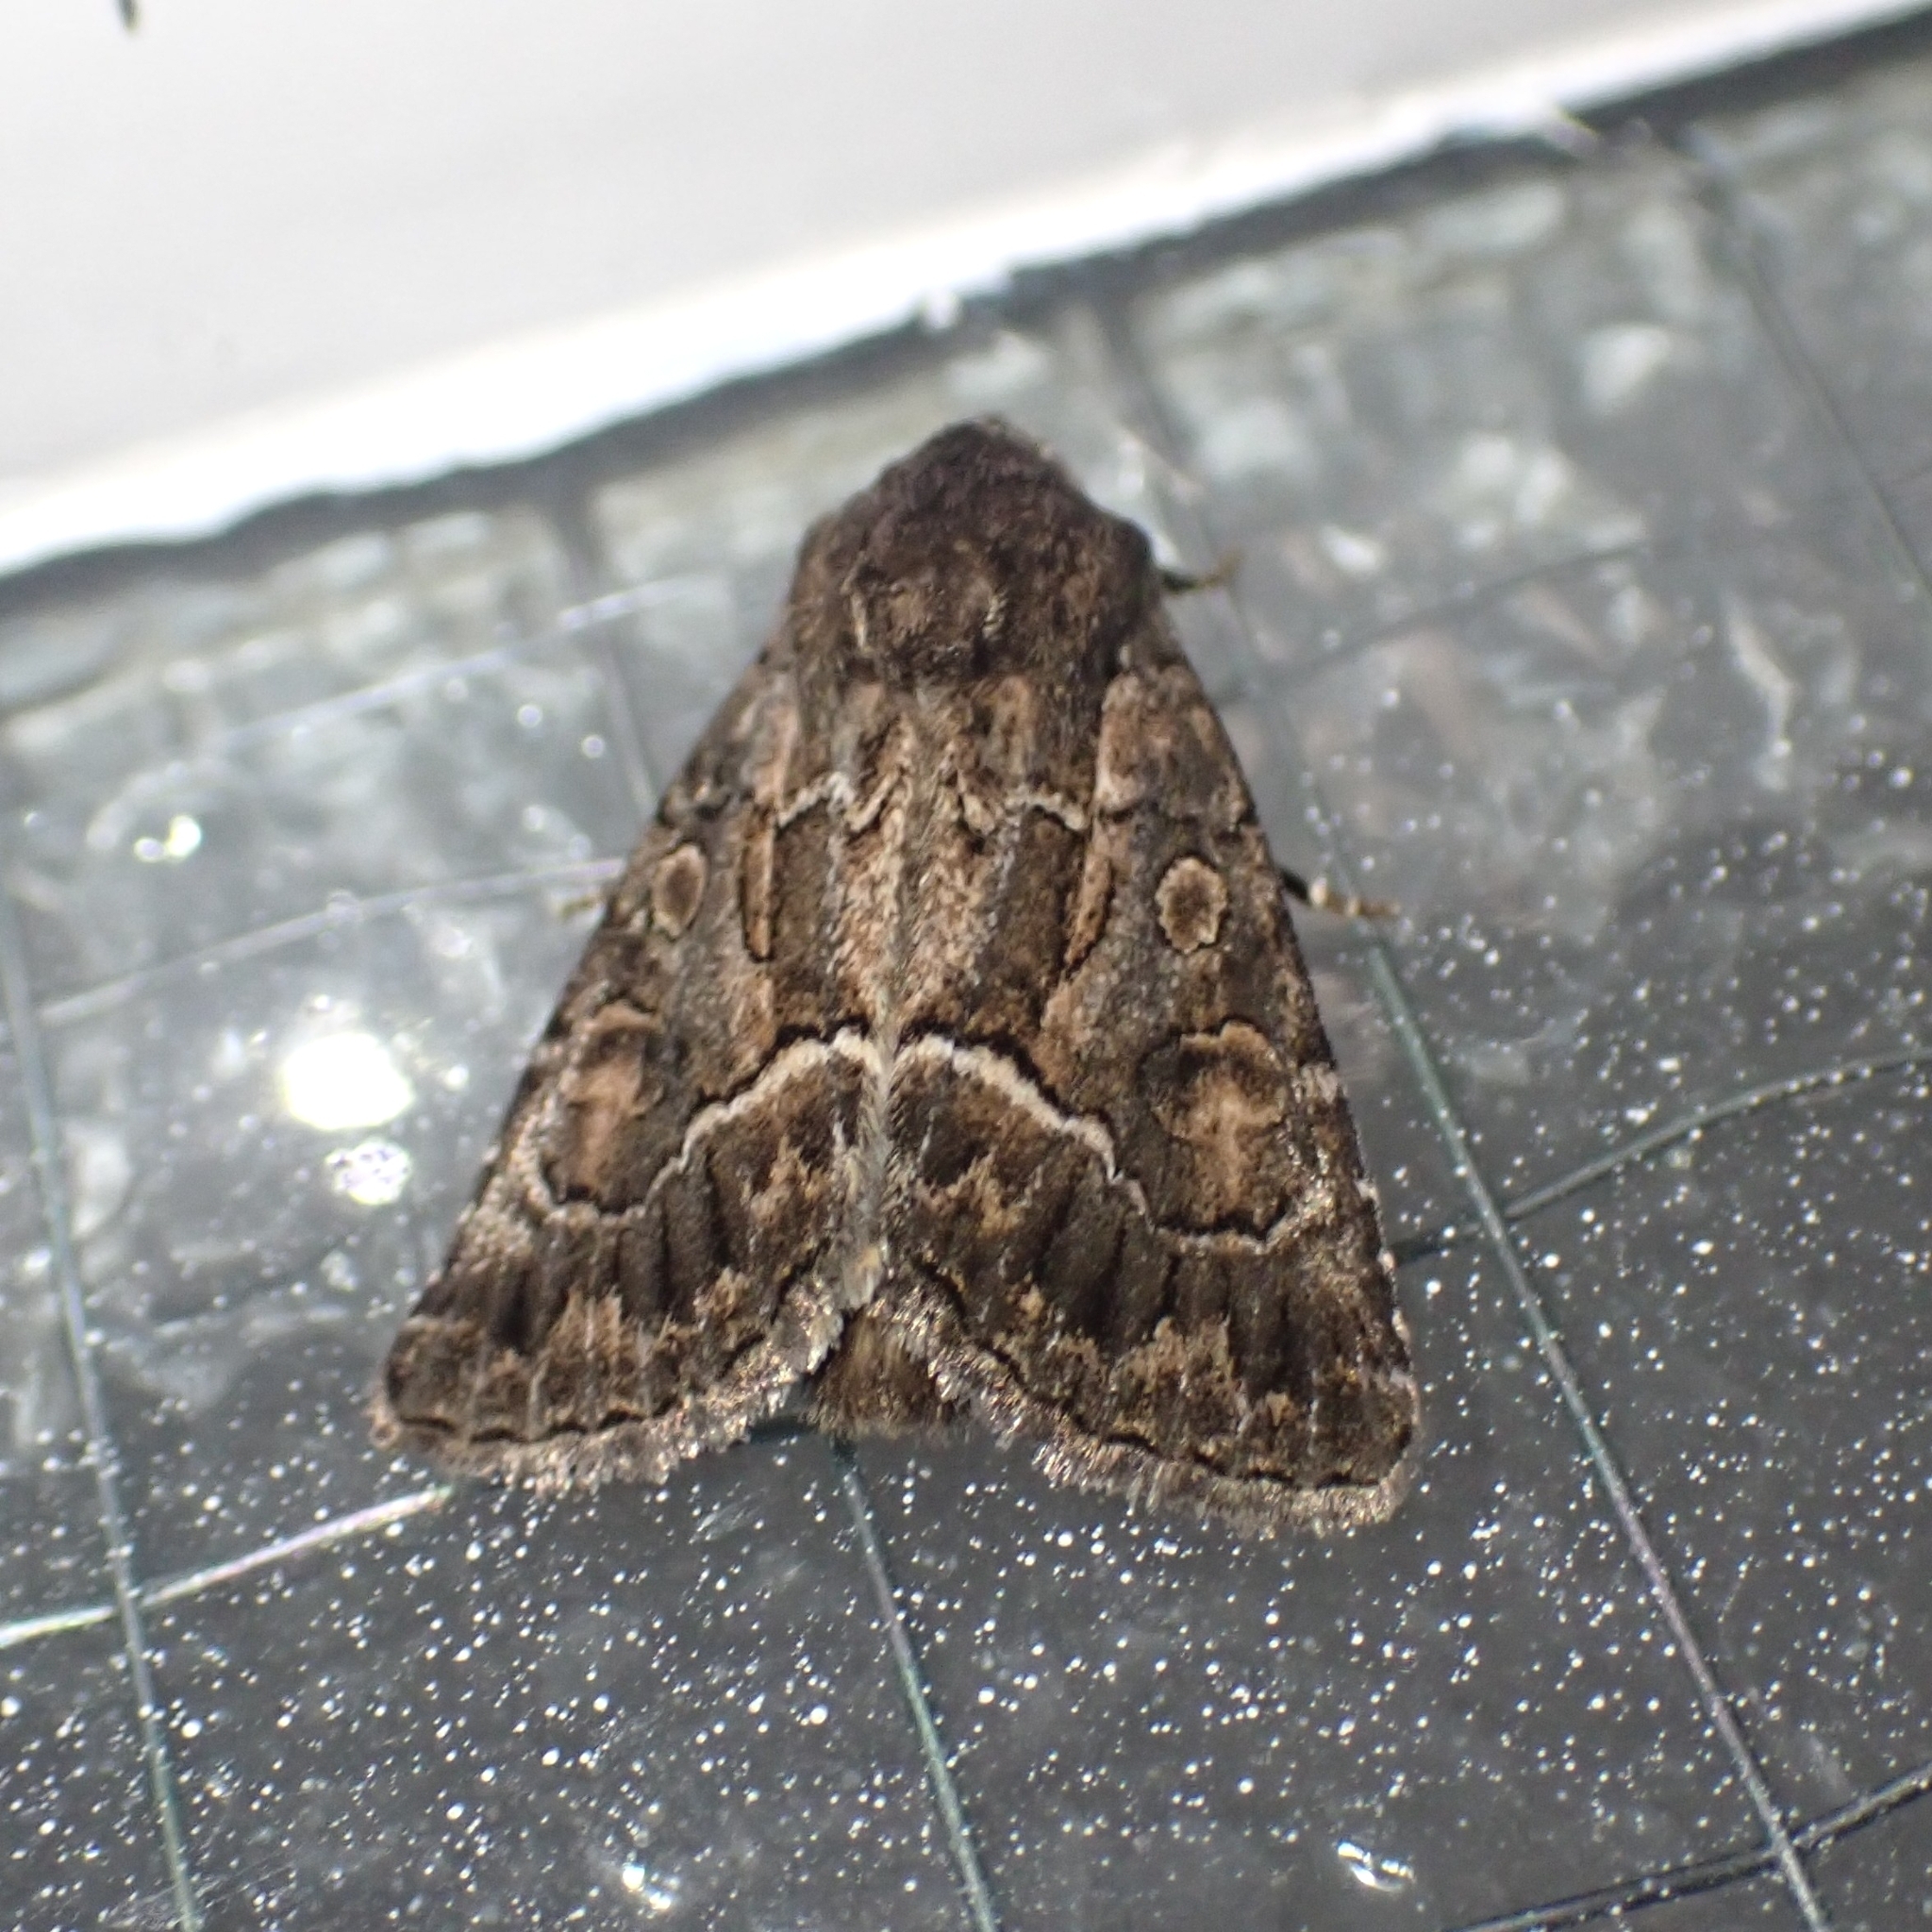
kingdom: Animalia
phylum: Arthropoda
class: Insecta
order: Lepidoptera
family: Noctuidae
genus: Thalpophila
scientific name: Thalpophila matura
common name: Straw underwing
